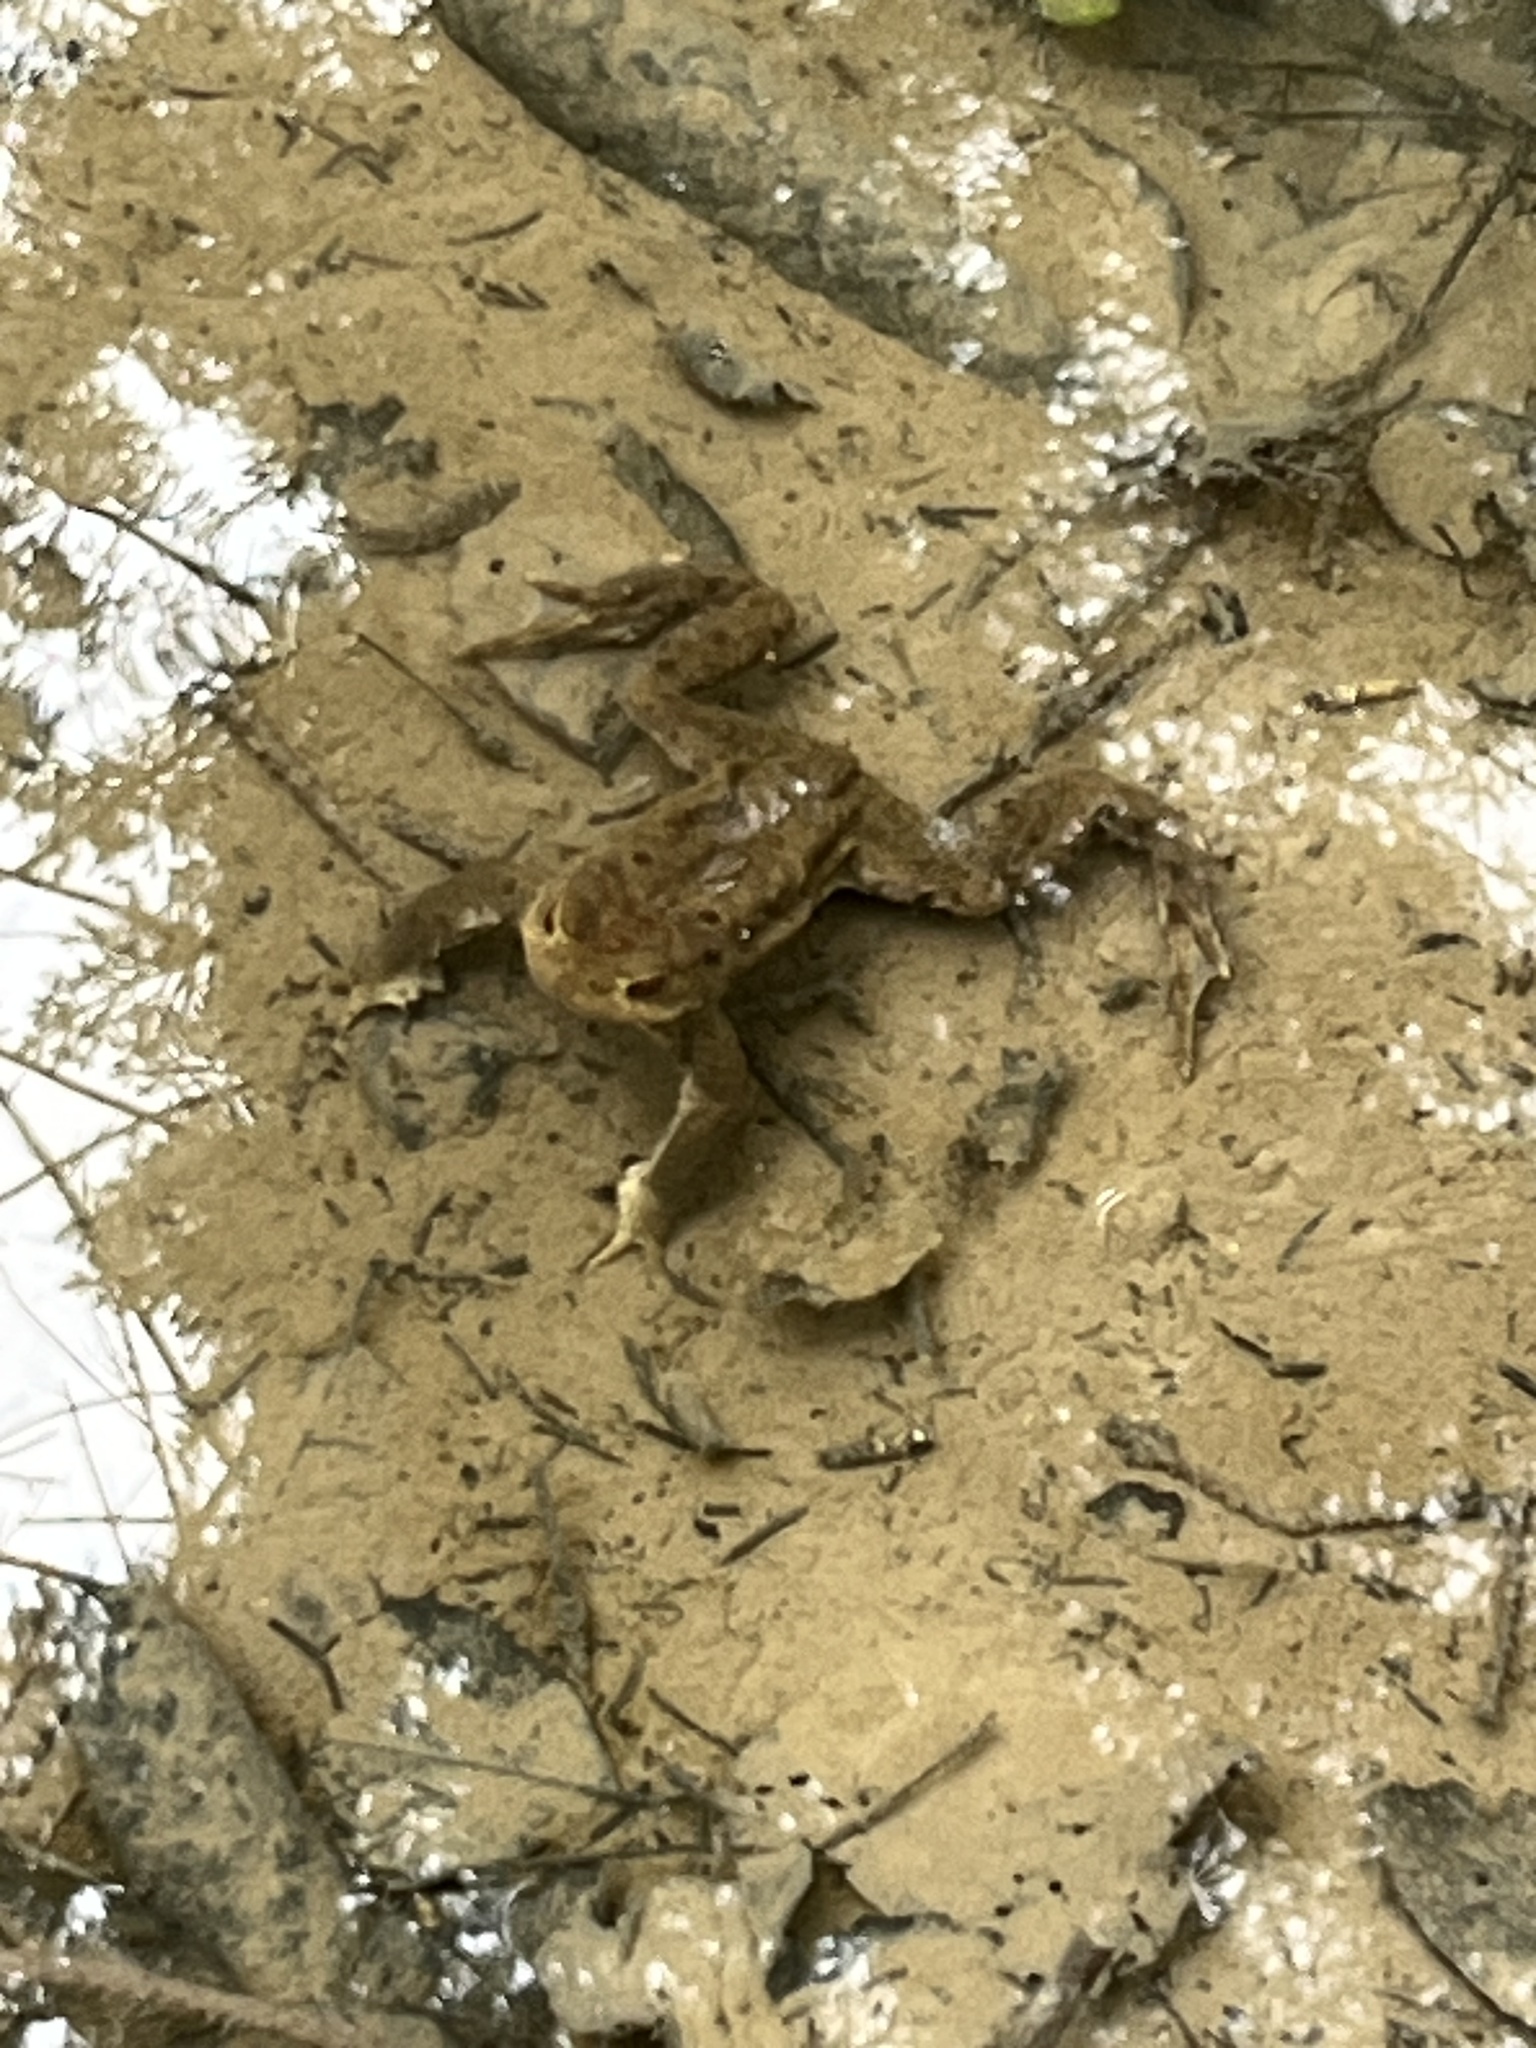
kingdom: Animalia
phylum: Chordata
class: Amphibia
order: Anura
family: Bufonidae
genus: Bufo
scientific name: Bufo bufo
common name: Common toad
